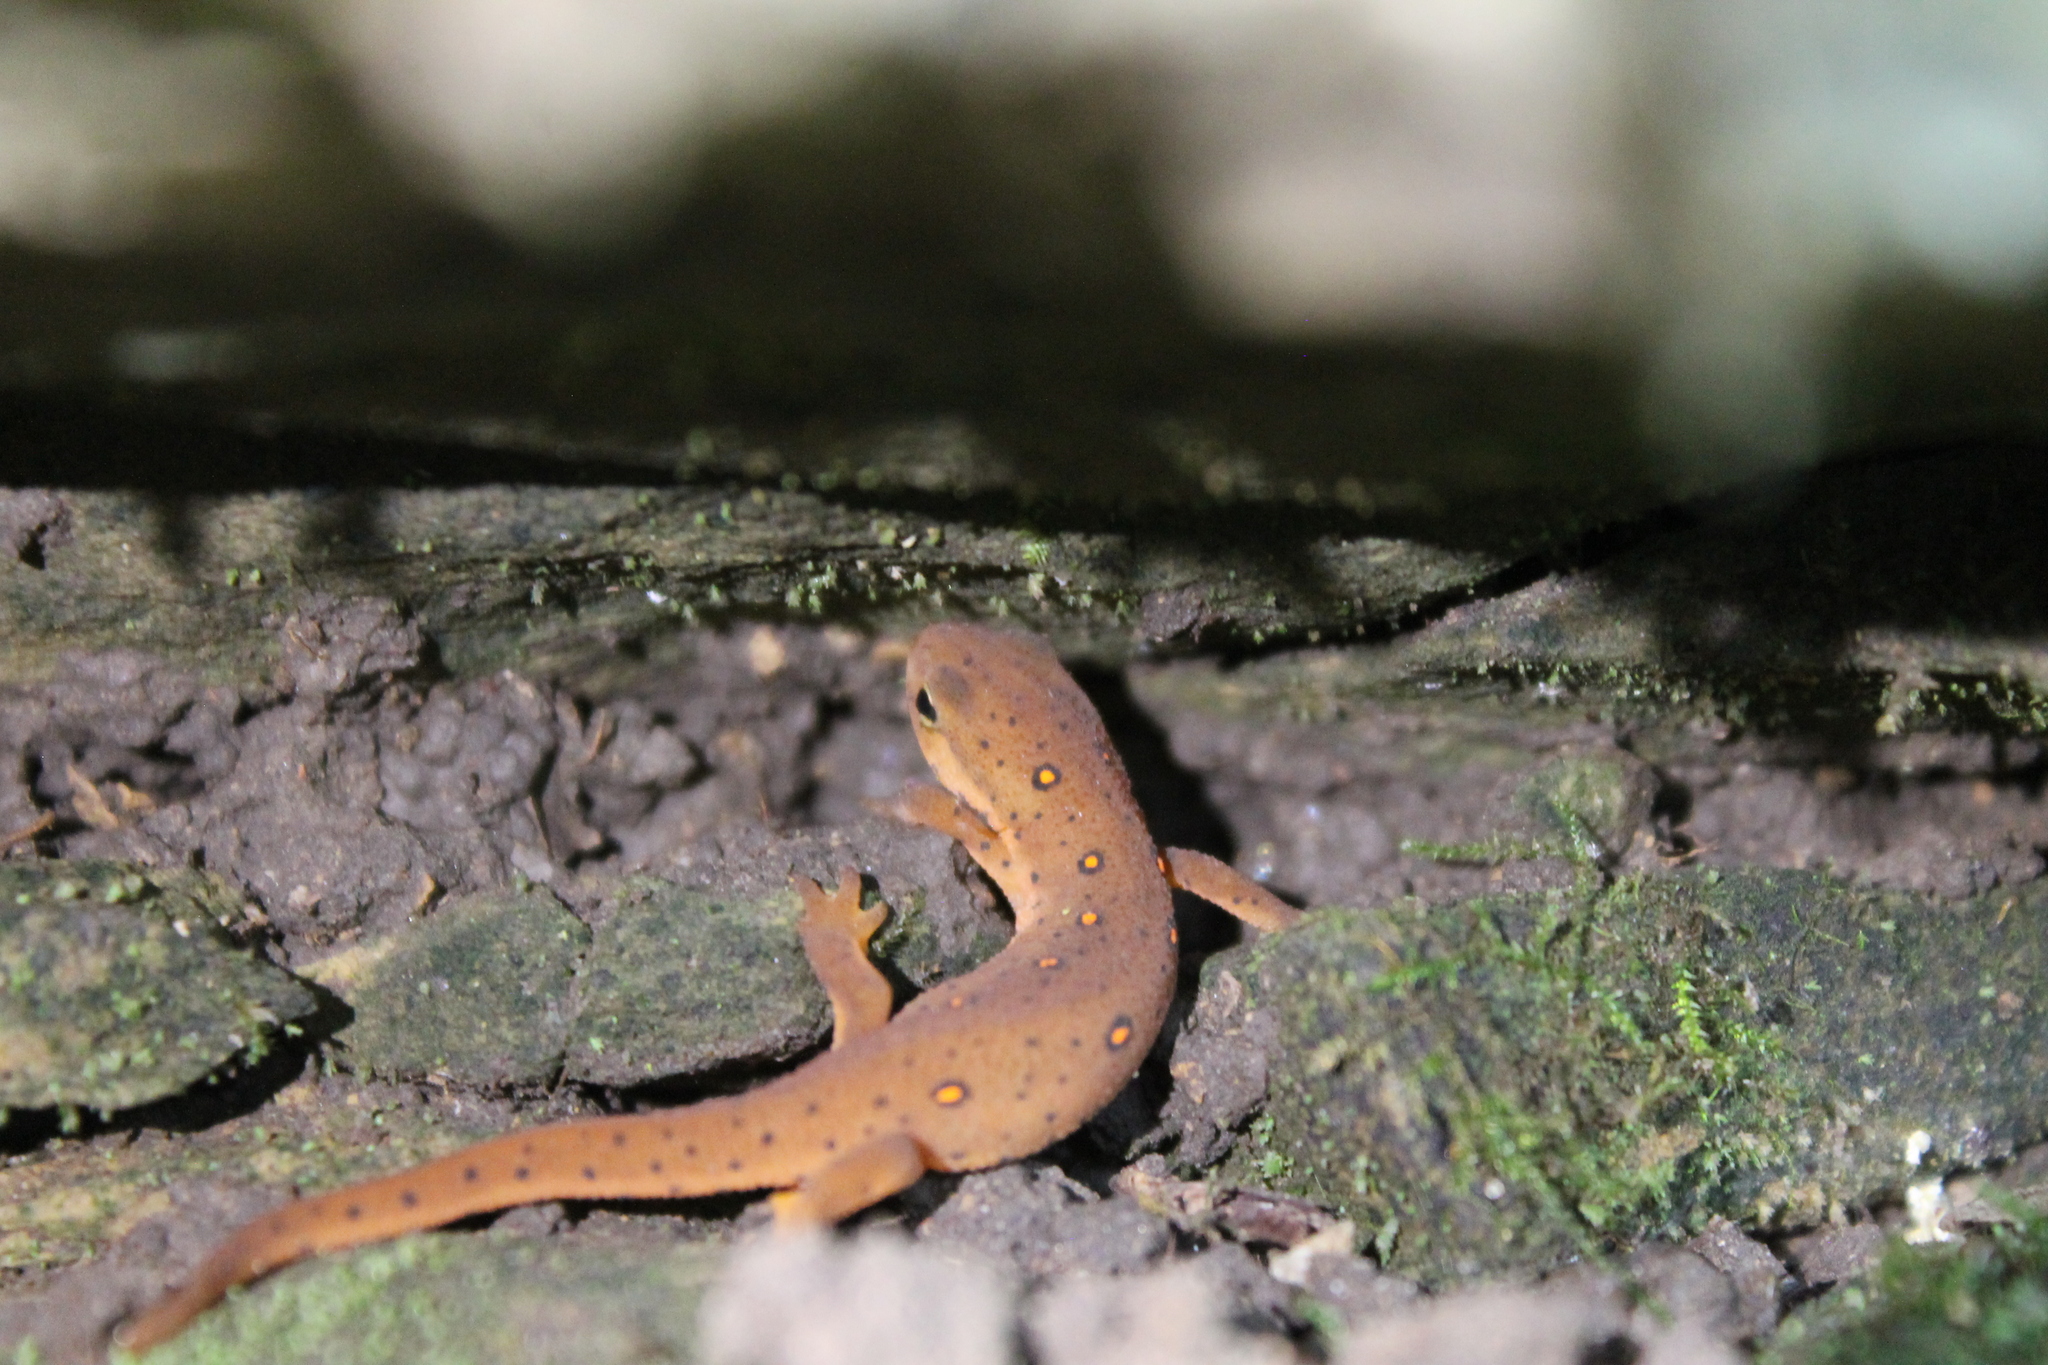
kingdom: Animalia
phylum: Chordata
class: Amphibia
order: Caudata
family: Salamandridae
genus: Notophthalmus
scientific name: Notophthalmus viridescens
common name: Eastern newt
